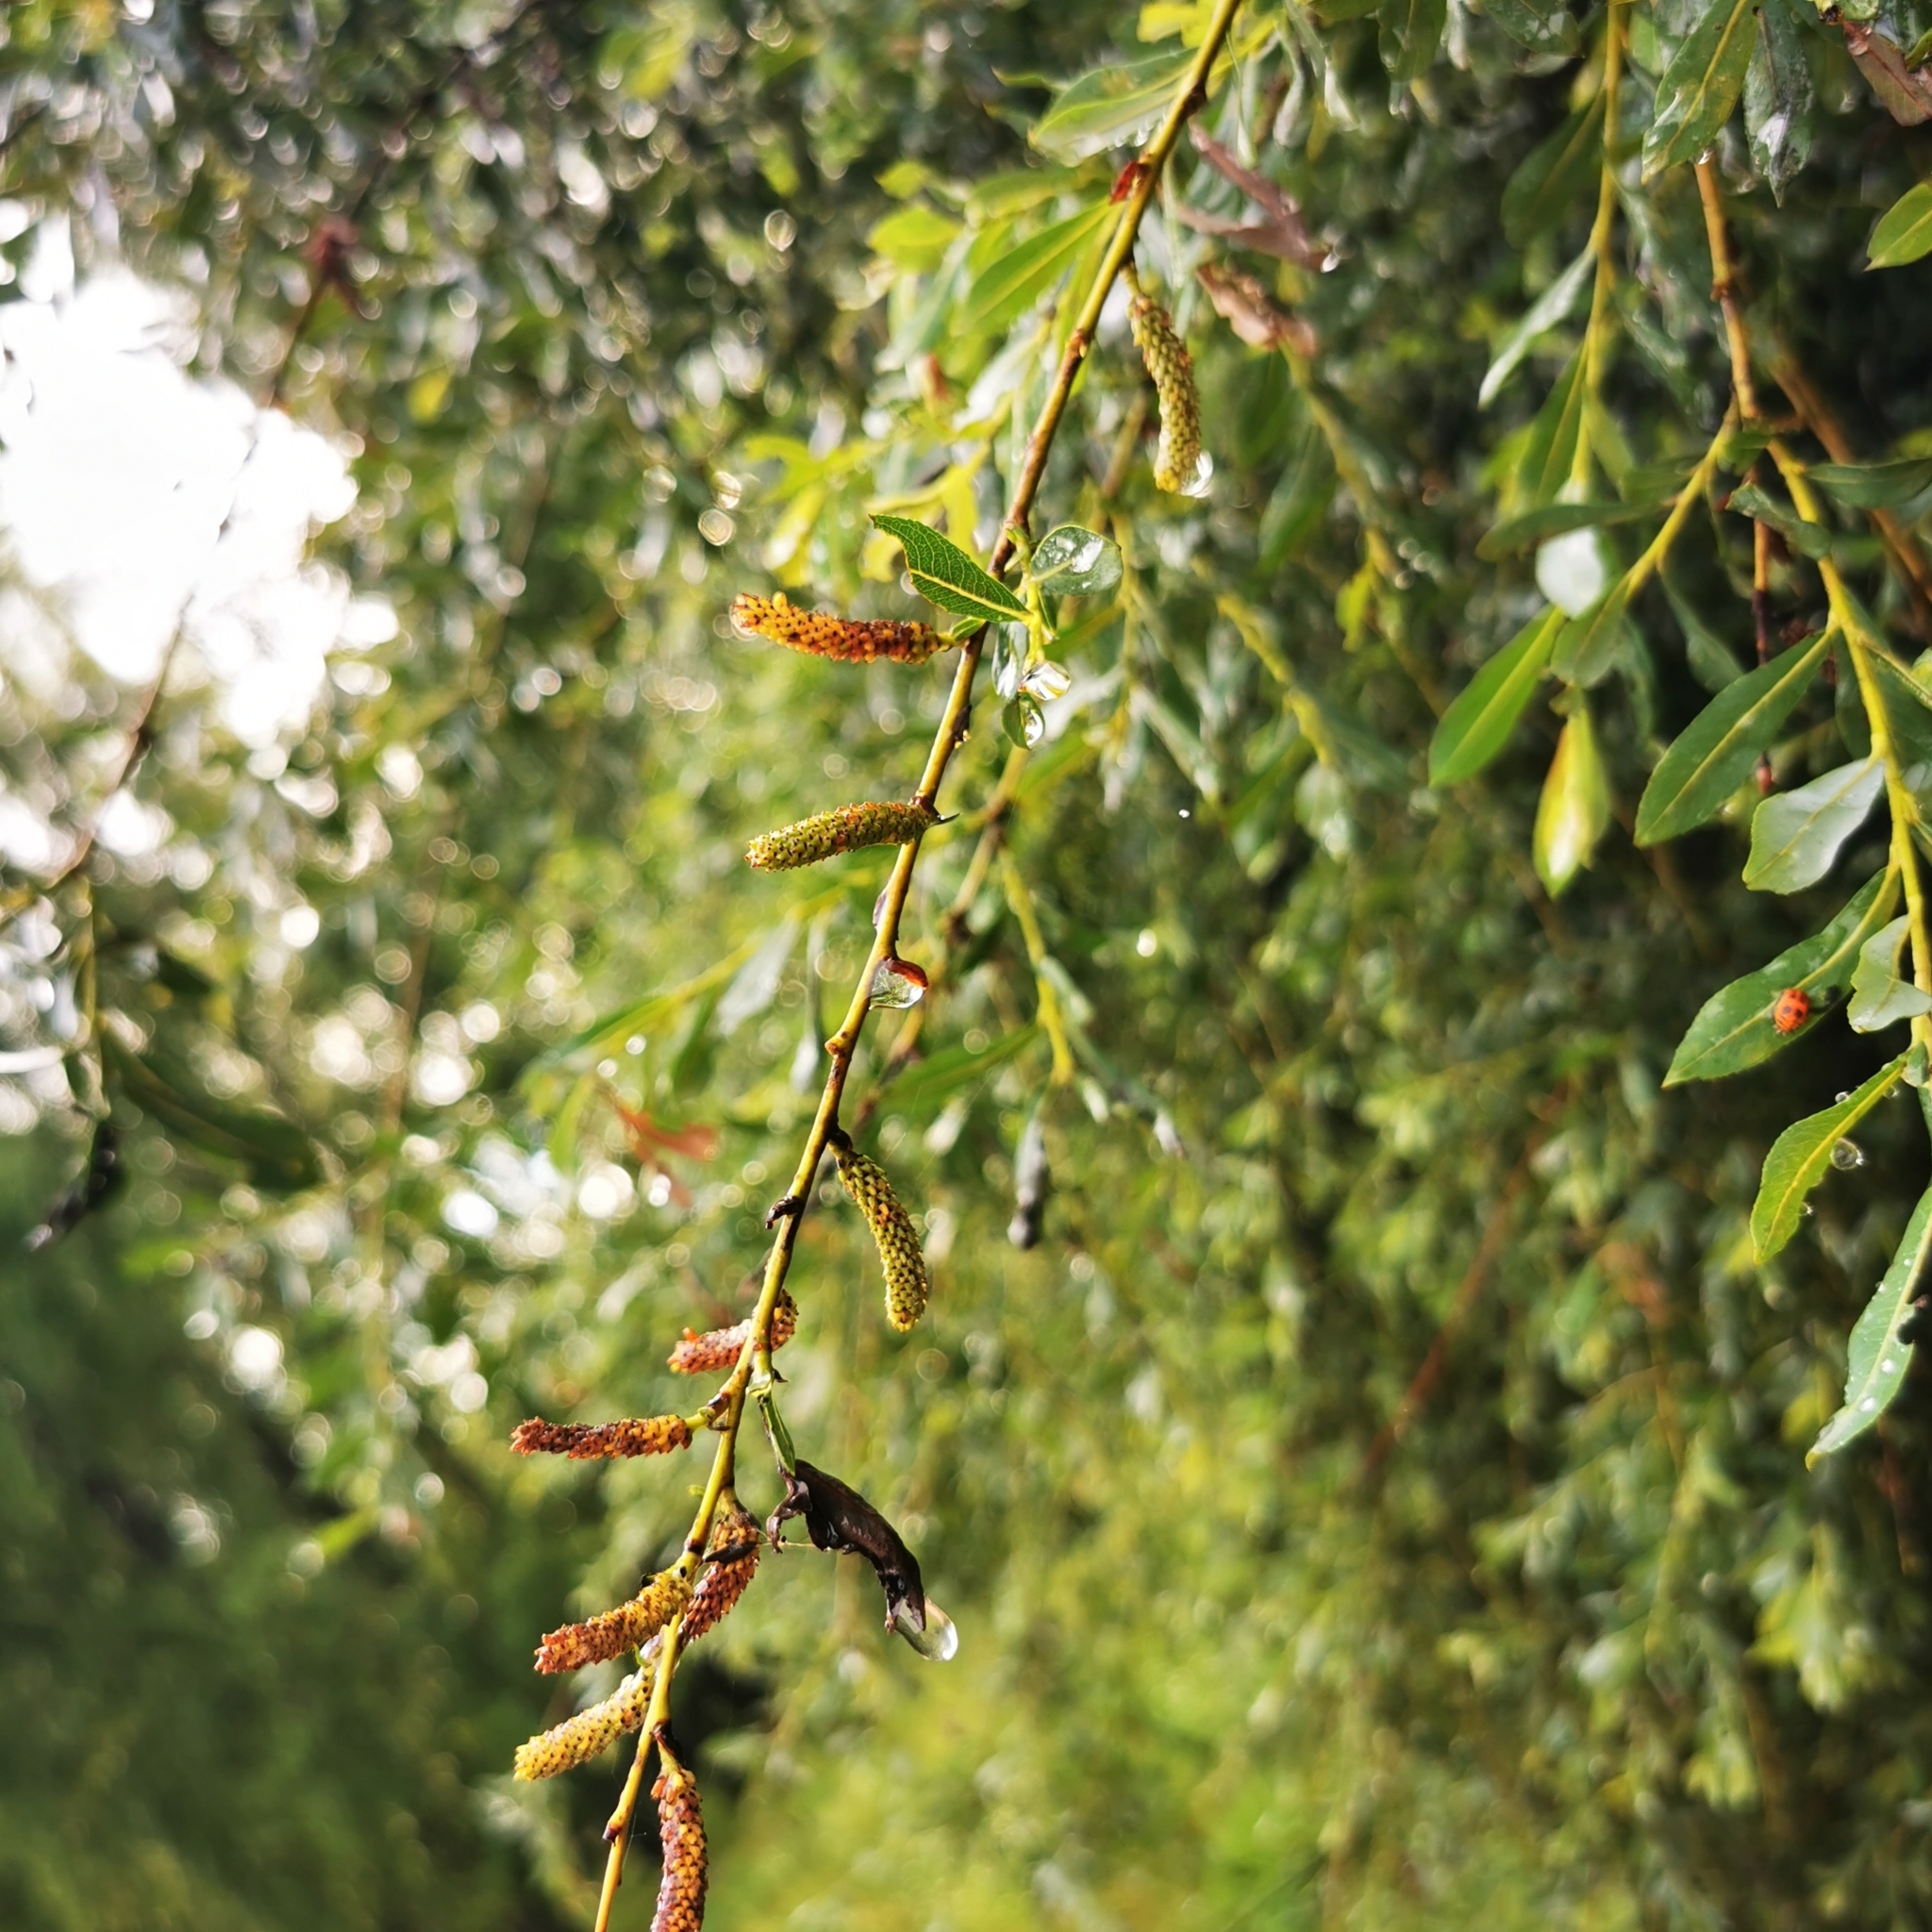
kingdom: Plantae
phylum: Tracheophyta
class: Magnoliopsida
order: Malpighiales
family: Salicaceae
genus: Salix
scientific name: Salix purpurea
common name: Purple willow
